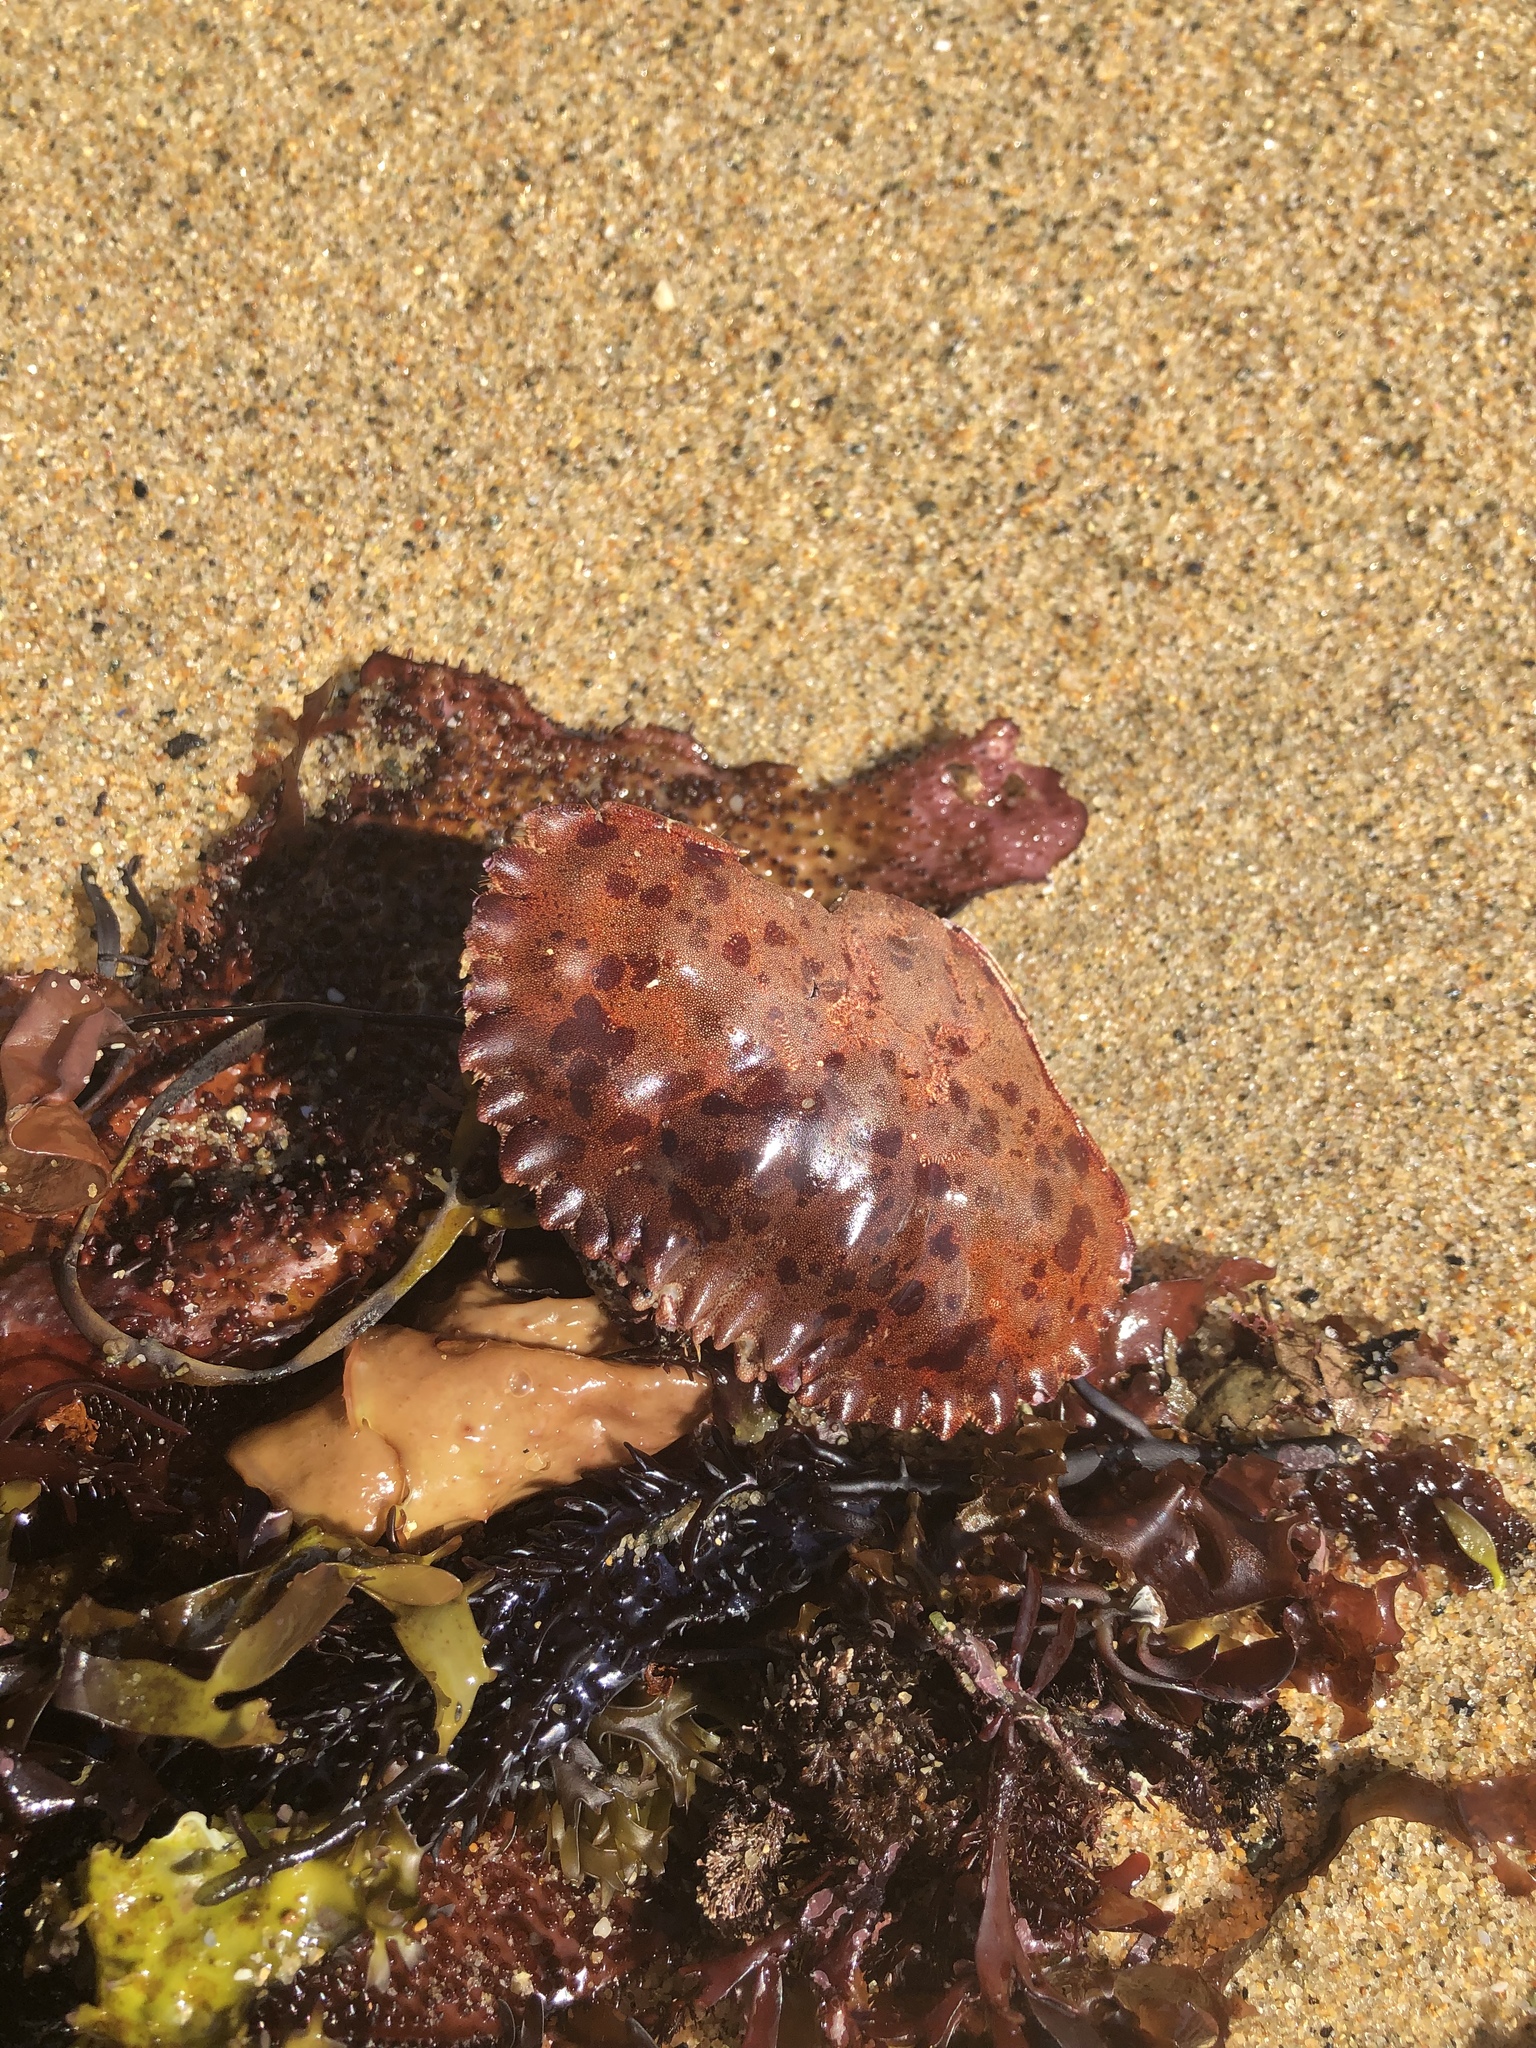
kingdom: Animalia
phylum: Arthropoda
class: Malacostraca
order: Decapoda
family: Cancridae
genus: Romaleon
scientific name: Romaleon antennarium
